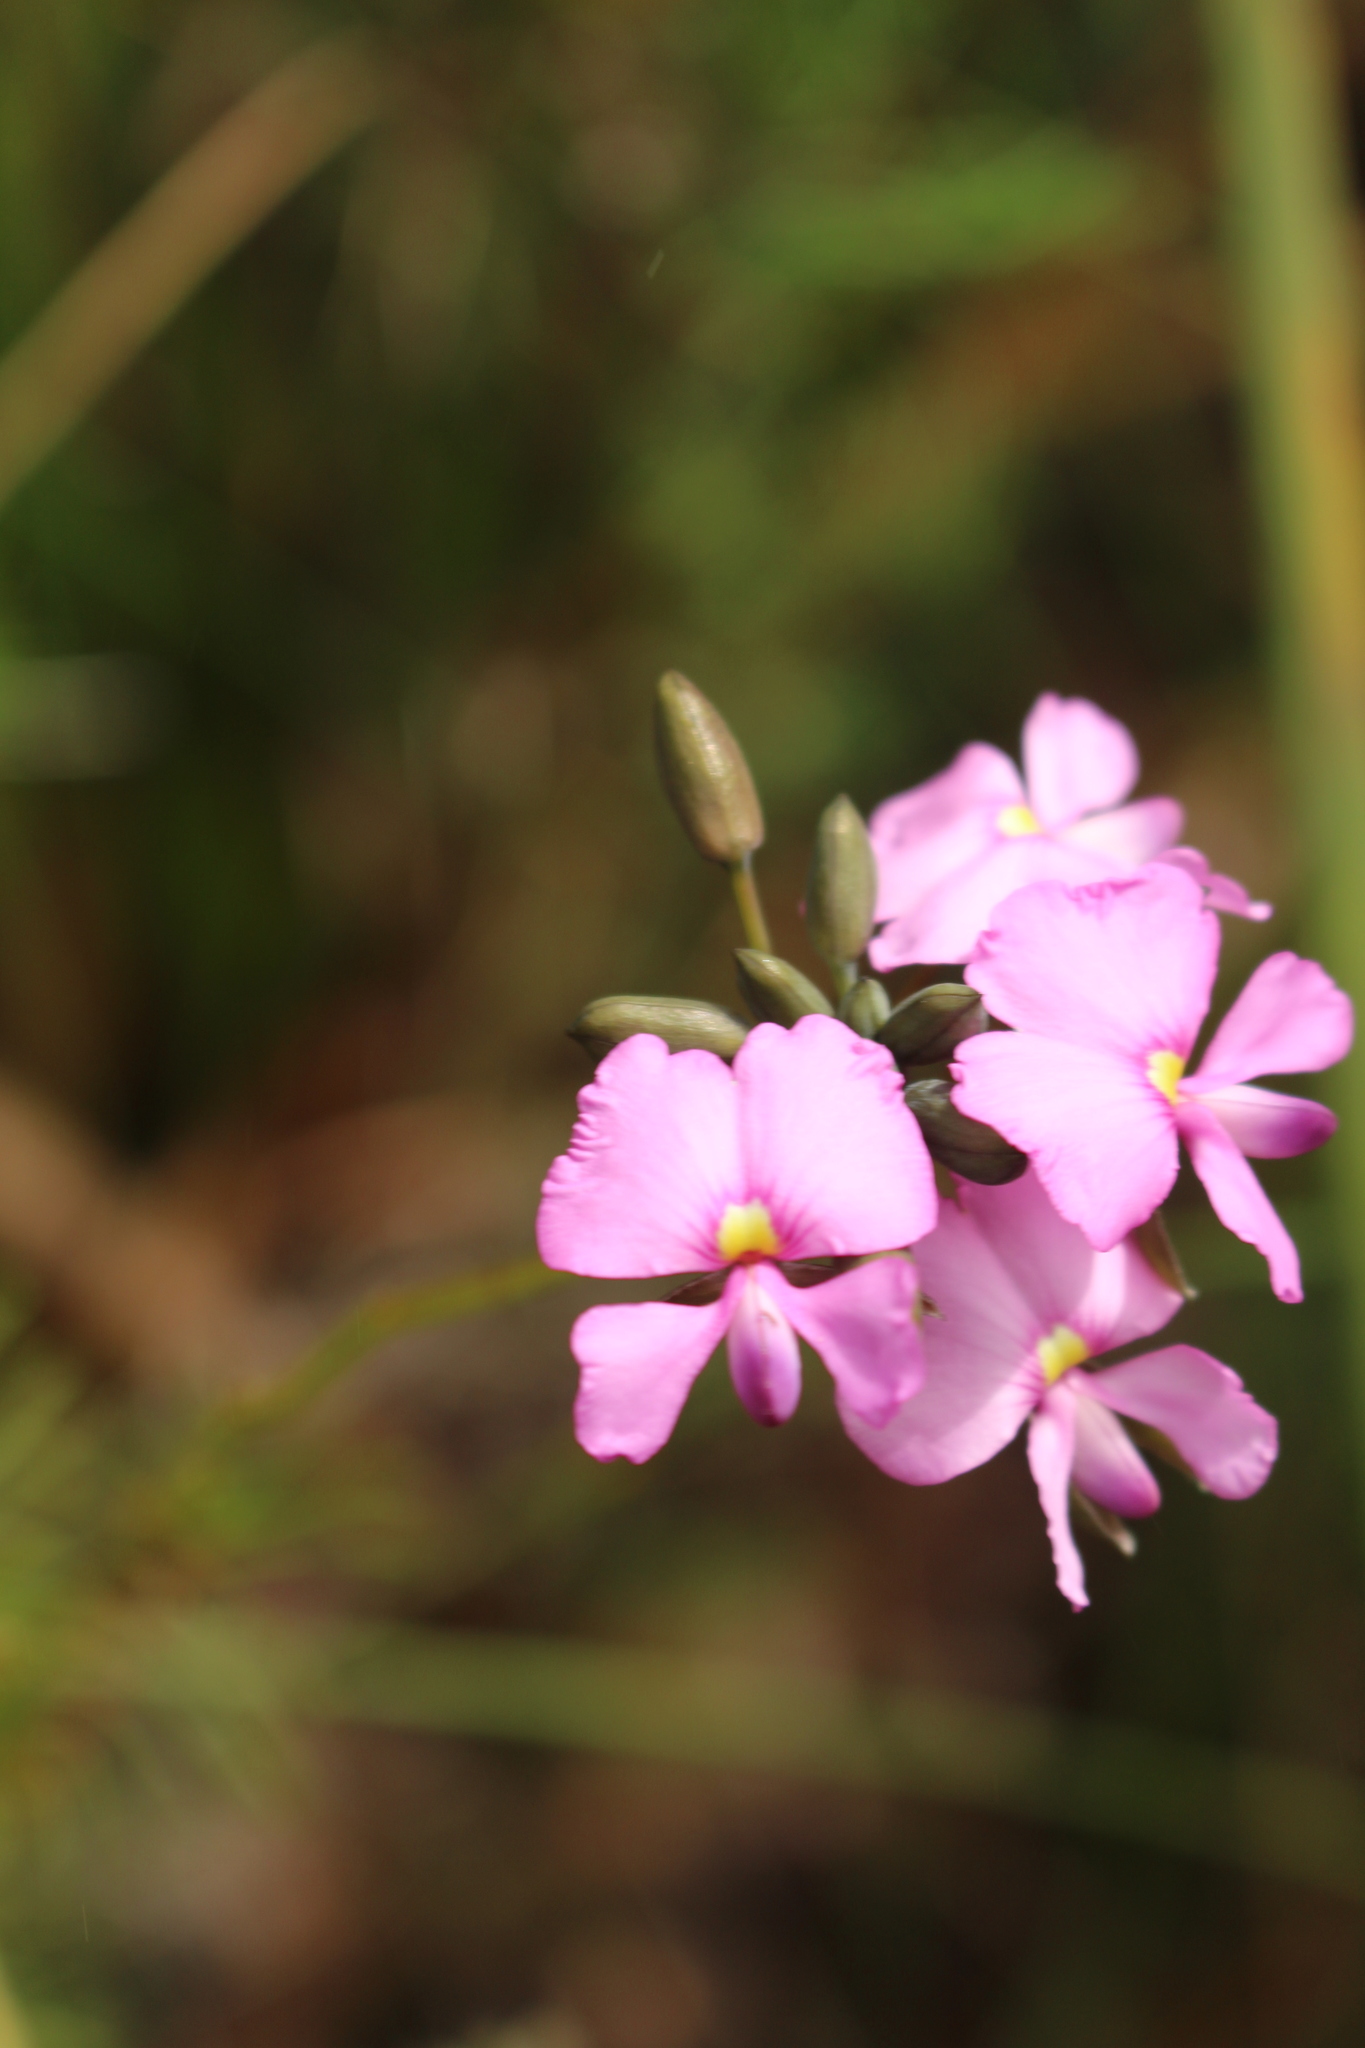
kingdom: Plantae
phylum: Tracheophyta
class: Magnoliopsida
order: Fabales
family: Fabaceae
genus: Gompholobium
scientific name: Gompholobium venustum
